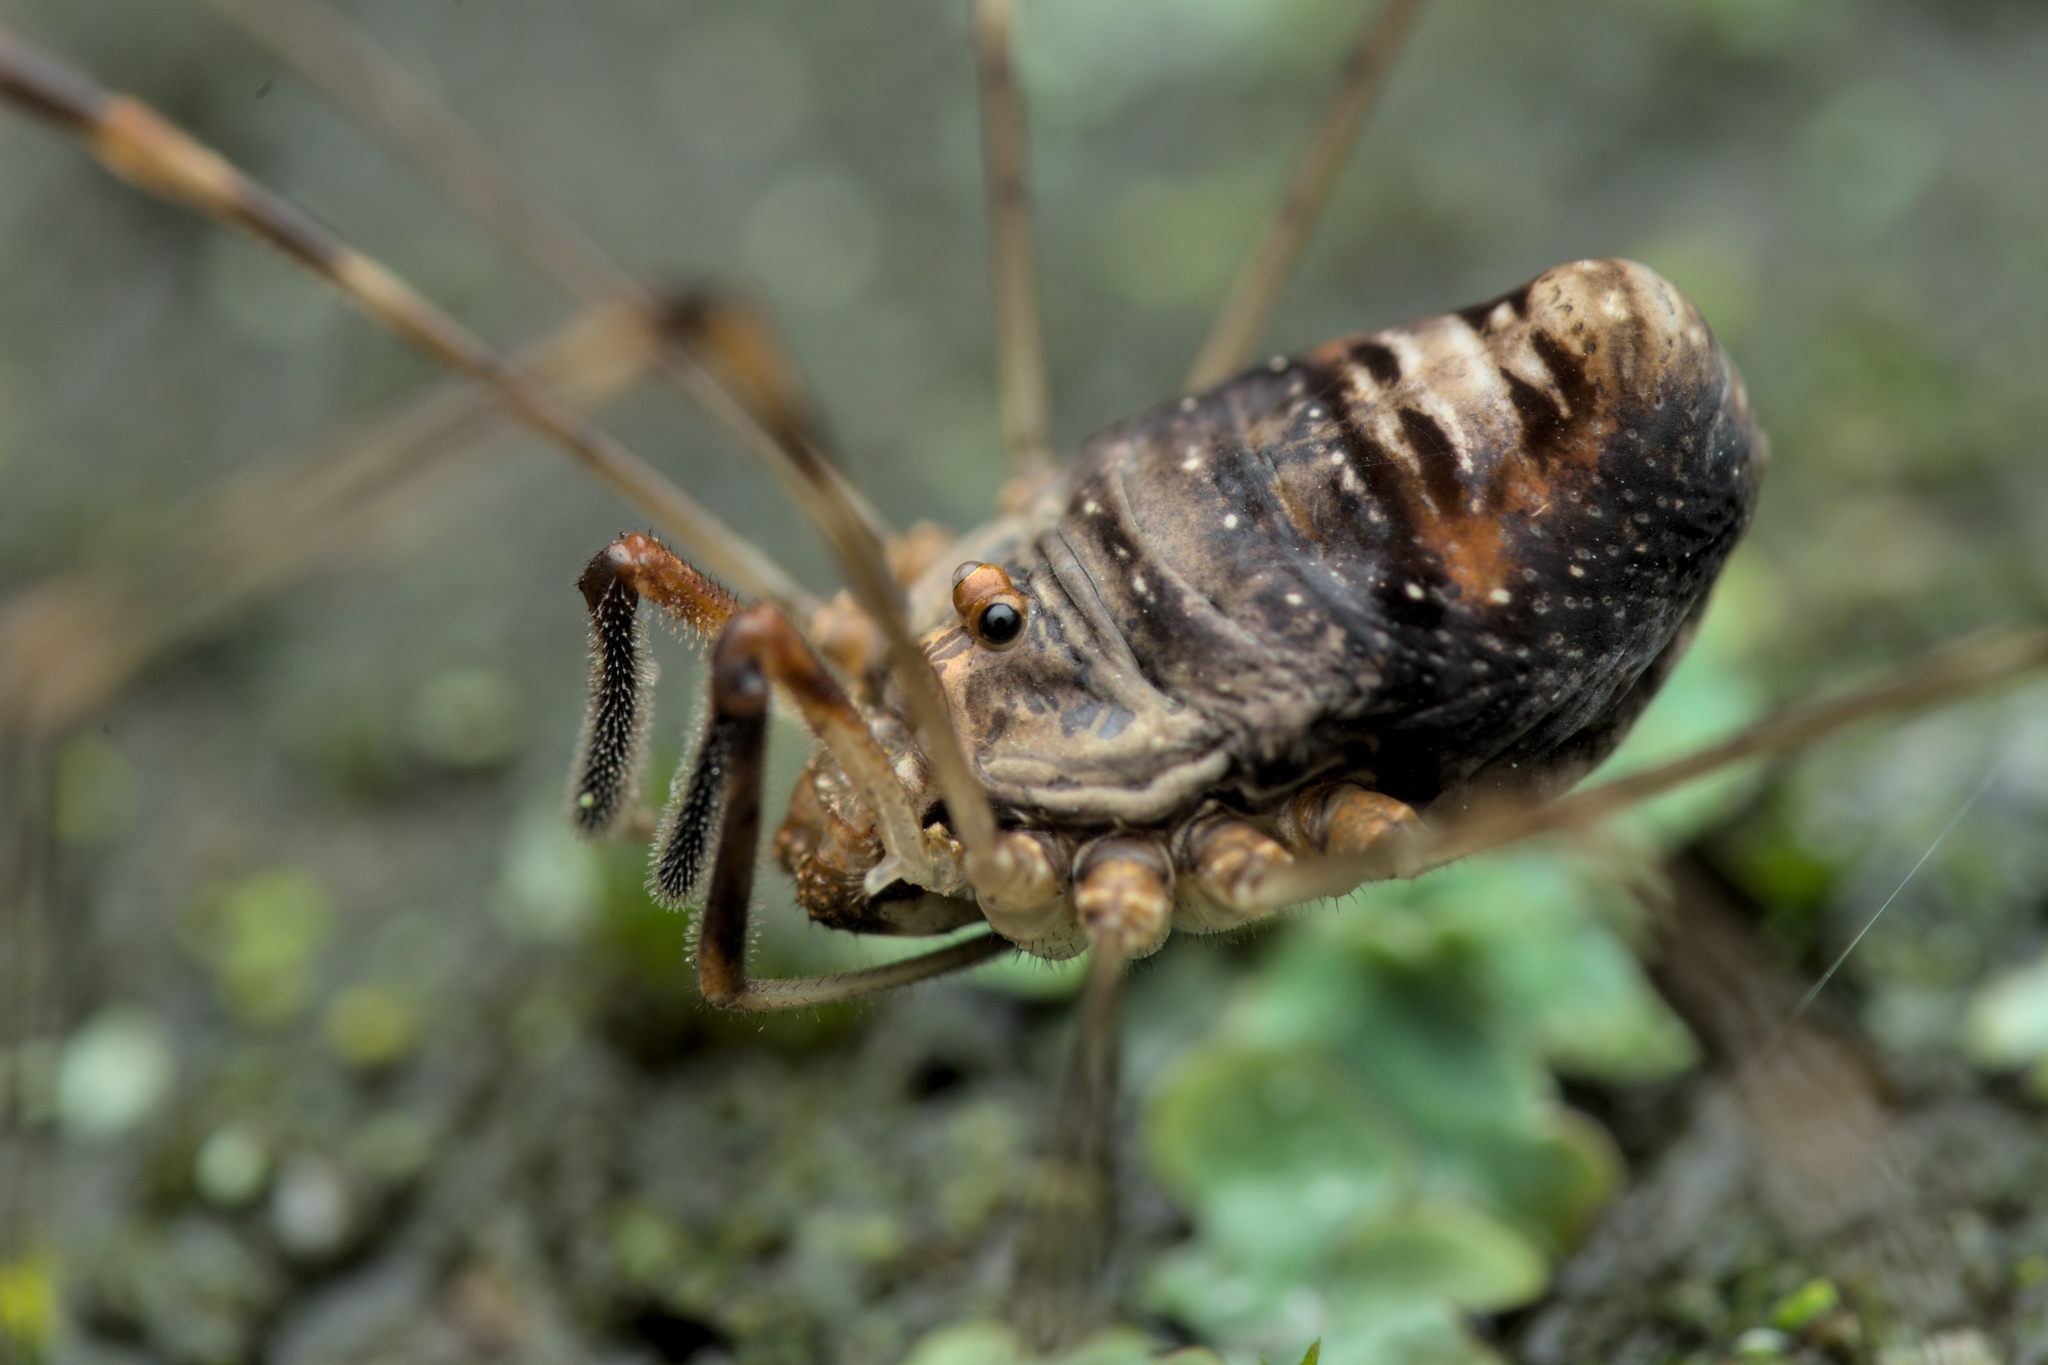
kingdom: Animalia
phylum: Arthropoda
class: Arachnida
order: Opiliones
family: Phalangiidae
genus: Dicranopalpus
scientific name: Dicranopalpus ramosus
